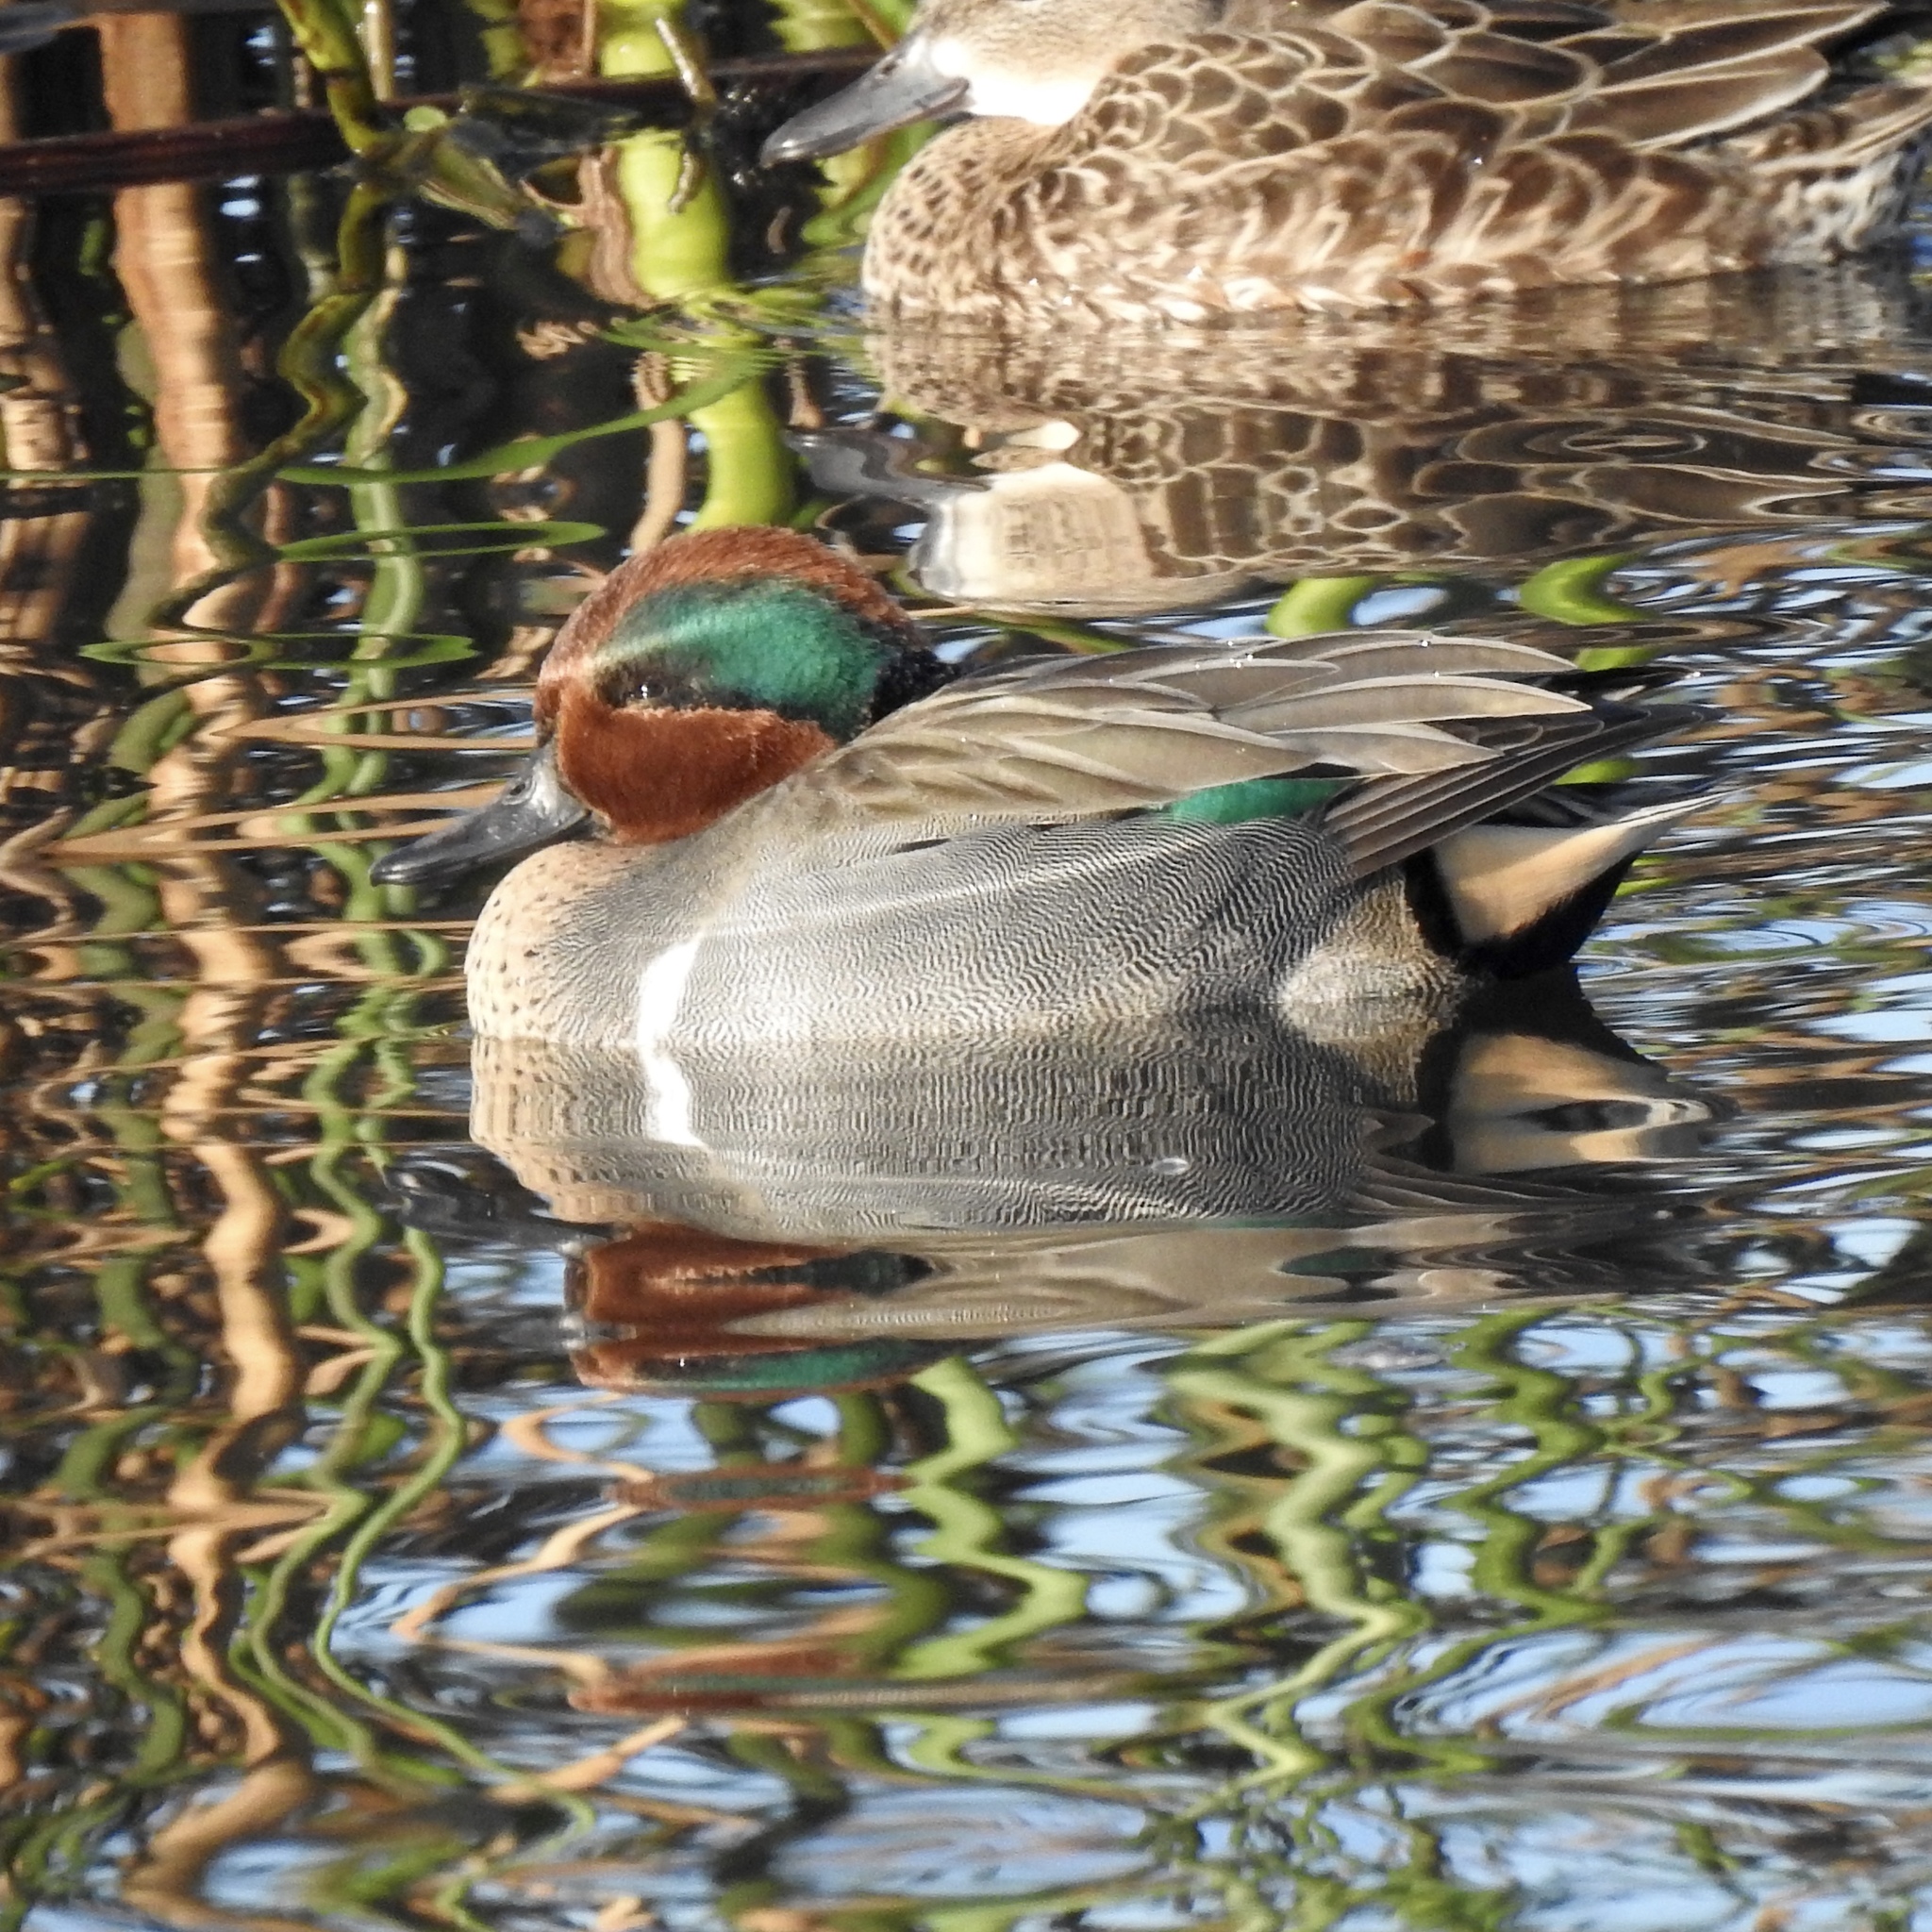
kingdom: Animalia
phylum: Chordata
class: Aves
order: Anseriformes
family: Anatidae
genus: Anas
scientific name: Anas crecca
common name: Eurasian teal
